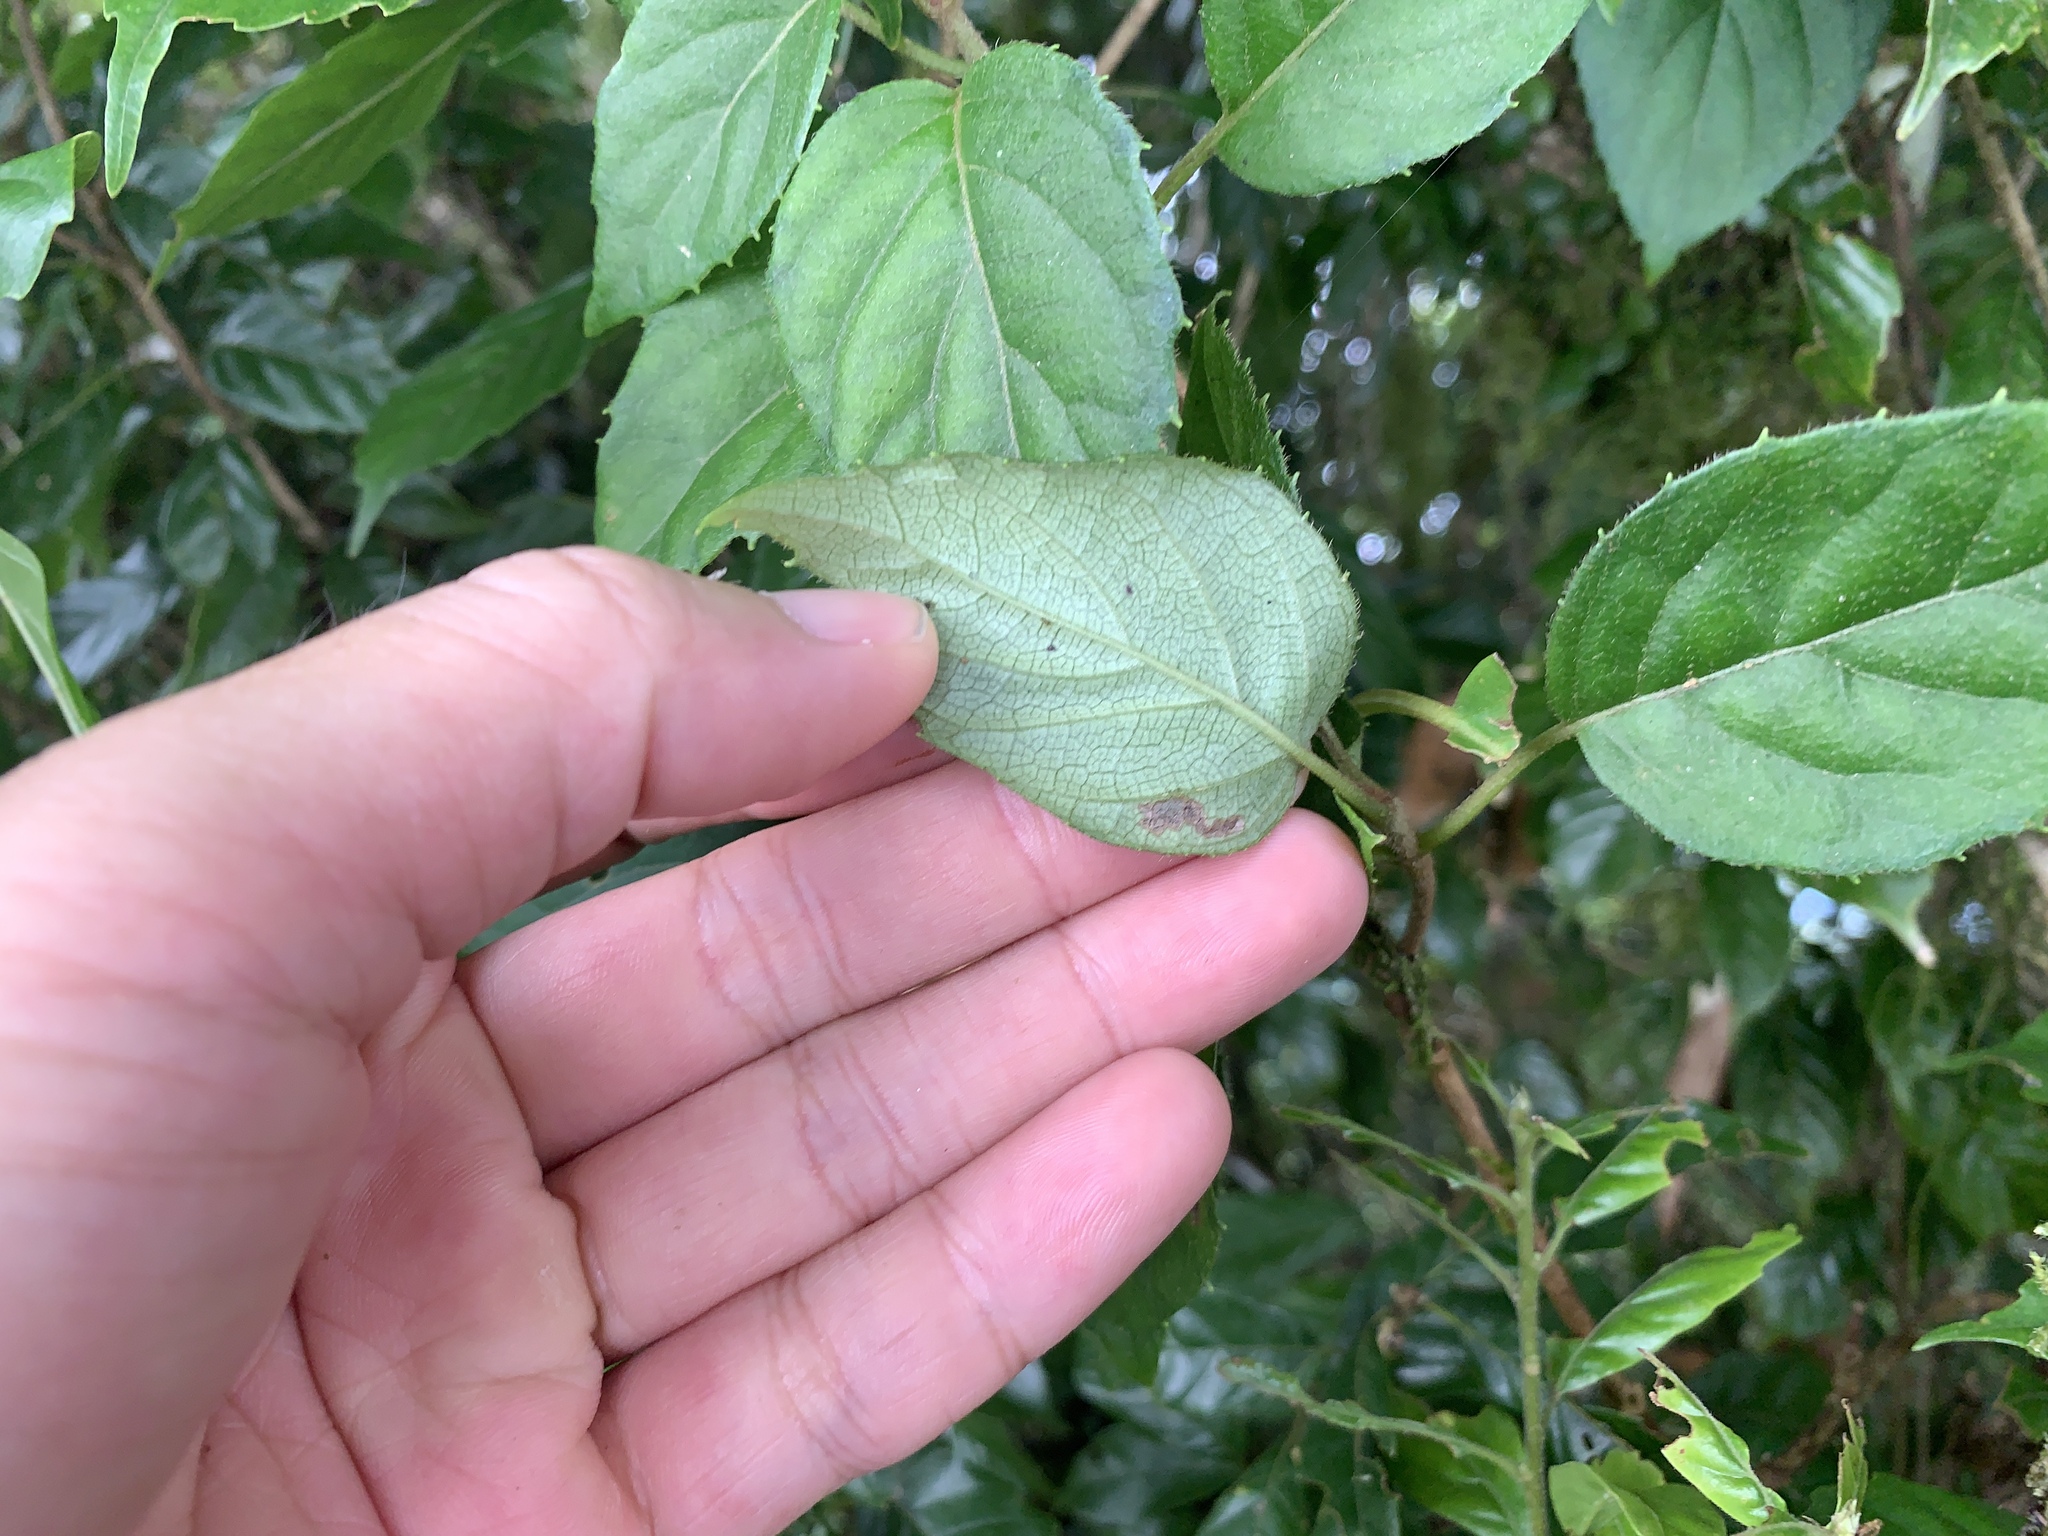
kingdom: Plantae
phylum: Tracheophyta
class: Magnoliopsida
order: Cornales
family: Hydrangeaceae
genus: Hydrangea
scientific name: Hydrangea fauriei
